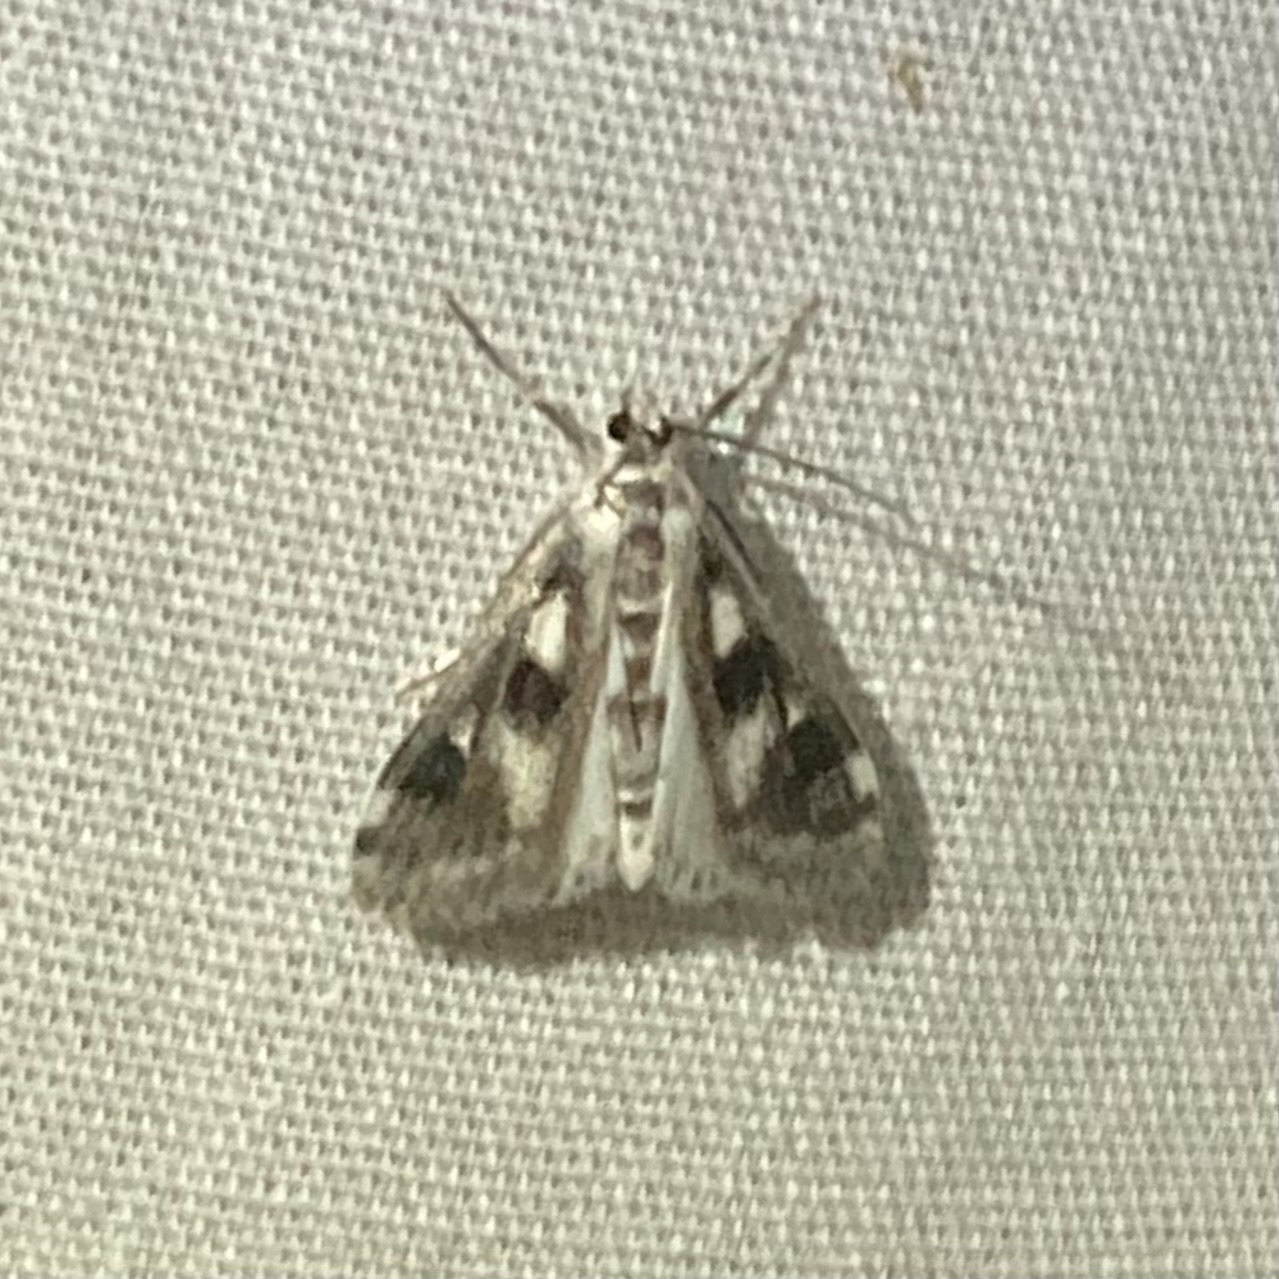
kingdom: Animalia
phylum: Arthropoda
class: Insecta
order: Lepidoptera
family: Crambidae
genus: Parapoynx
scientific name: Parapoynx maculalis
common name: Polymorphic pondweed moth
